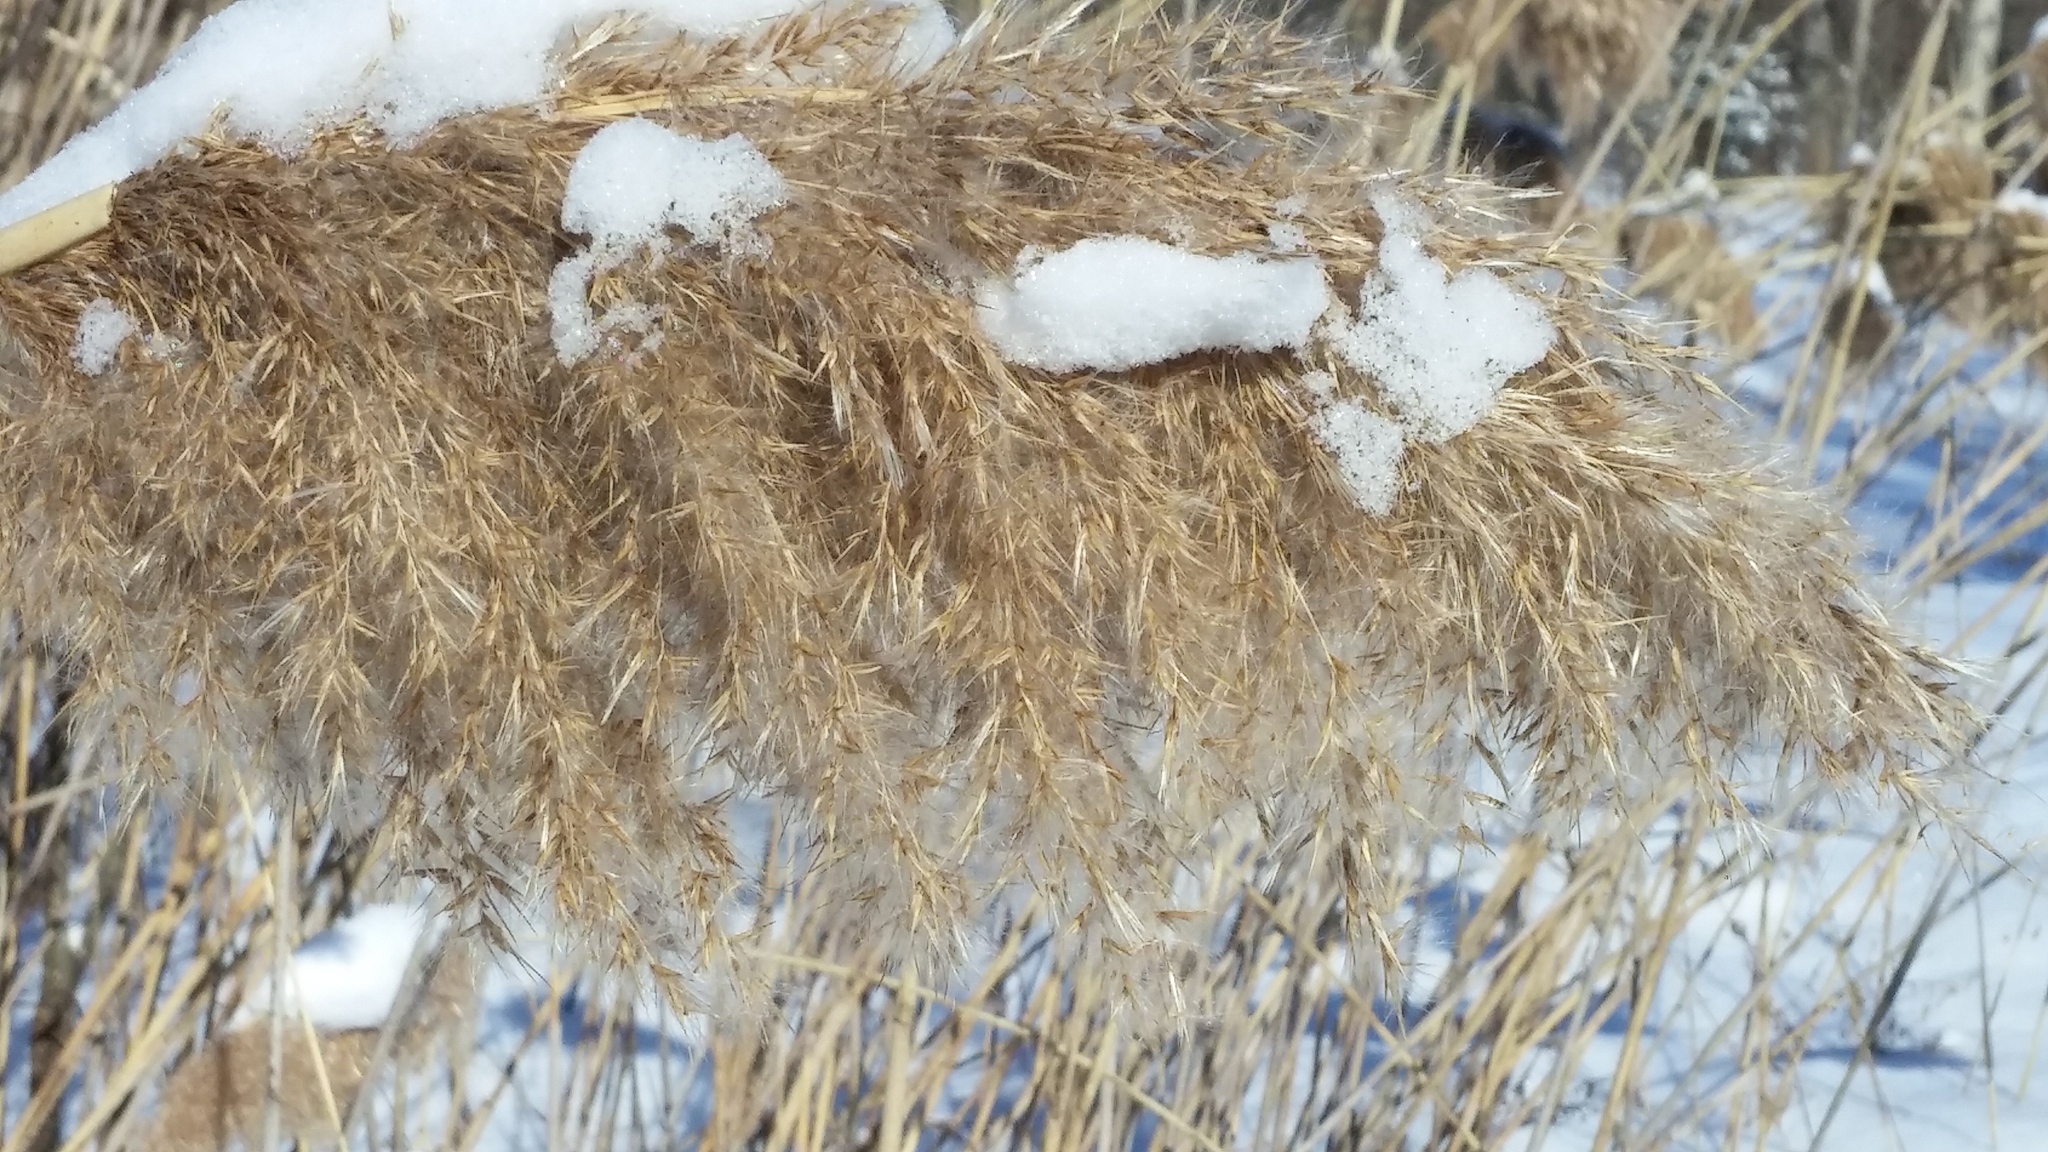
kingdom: Plantae
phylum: Tracheophyta
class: Liliopsida
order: Poales
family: Poaceae
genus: Phragmites
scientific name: Phragmites australis
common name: Common reed
